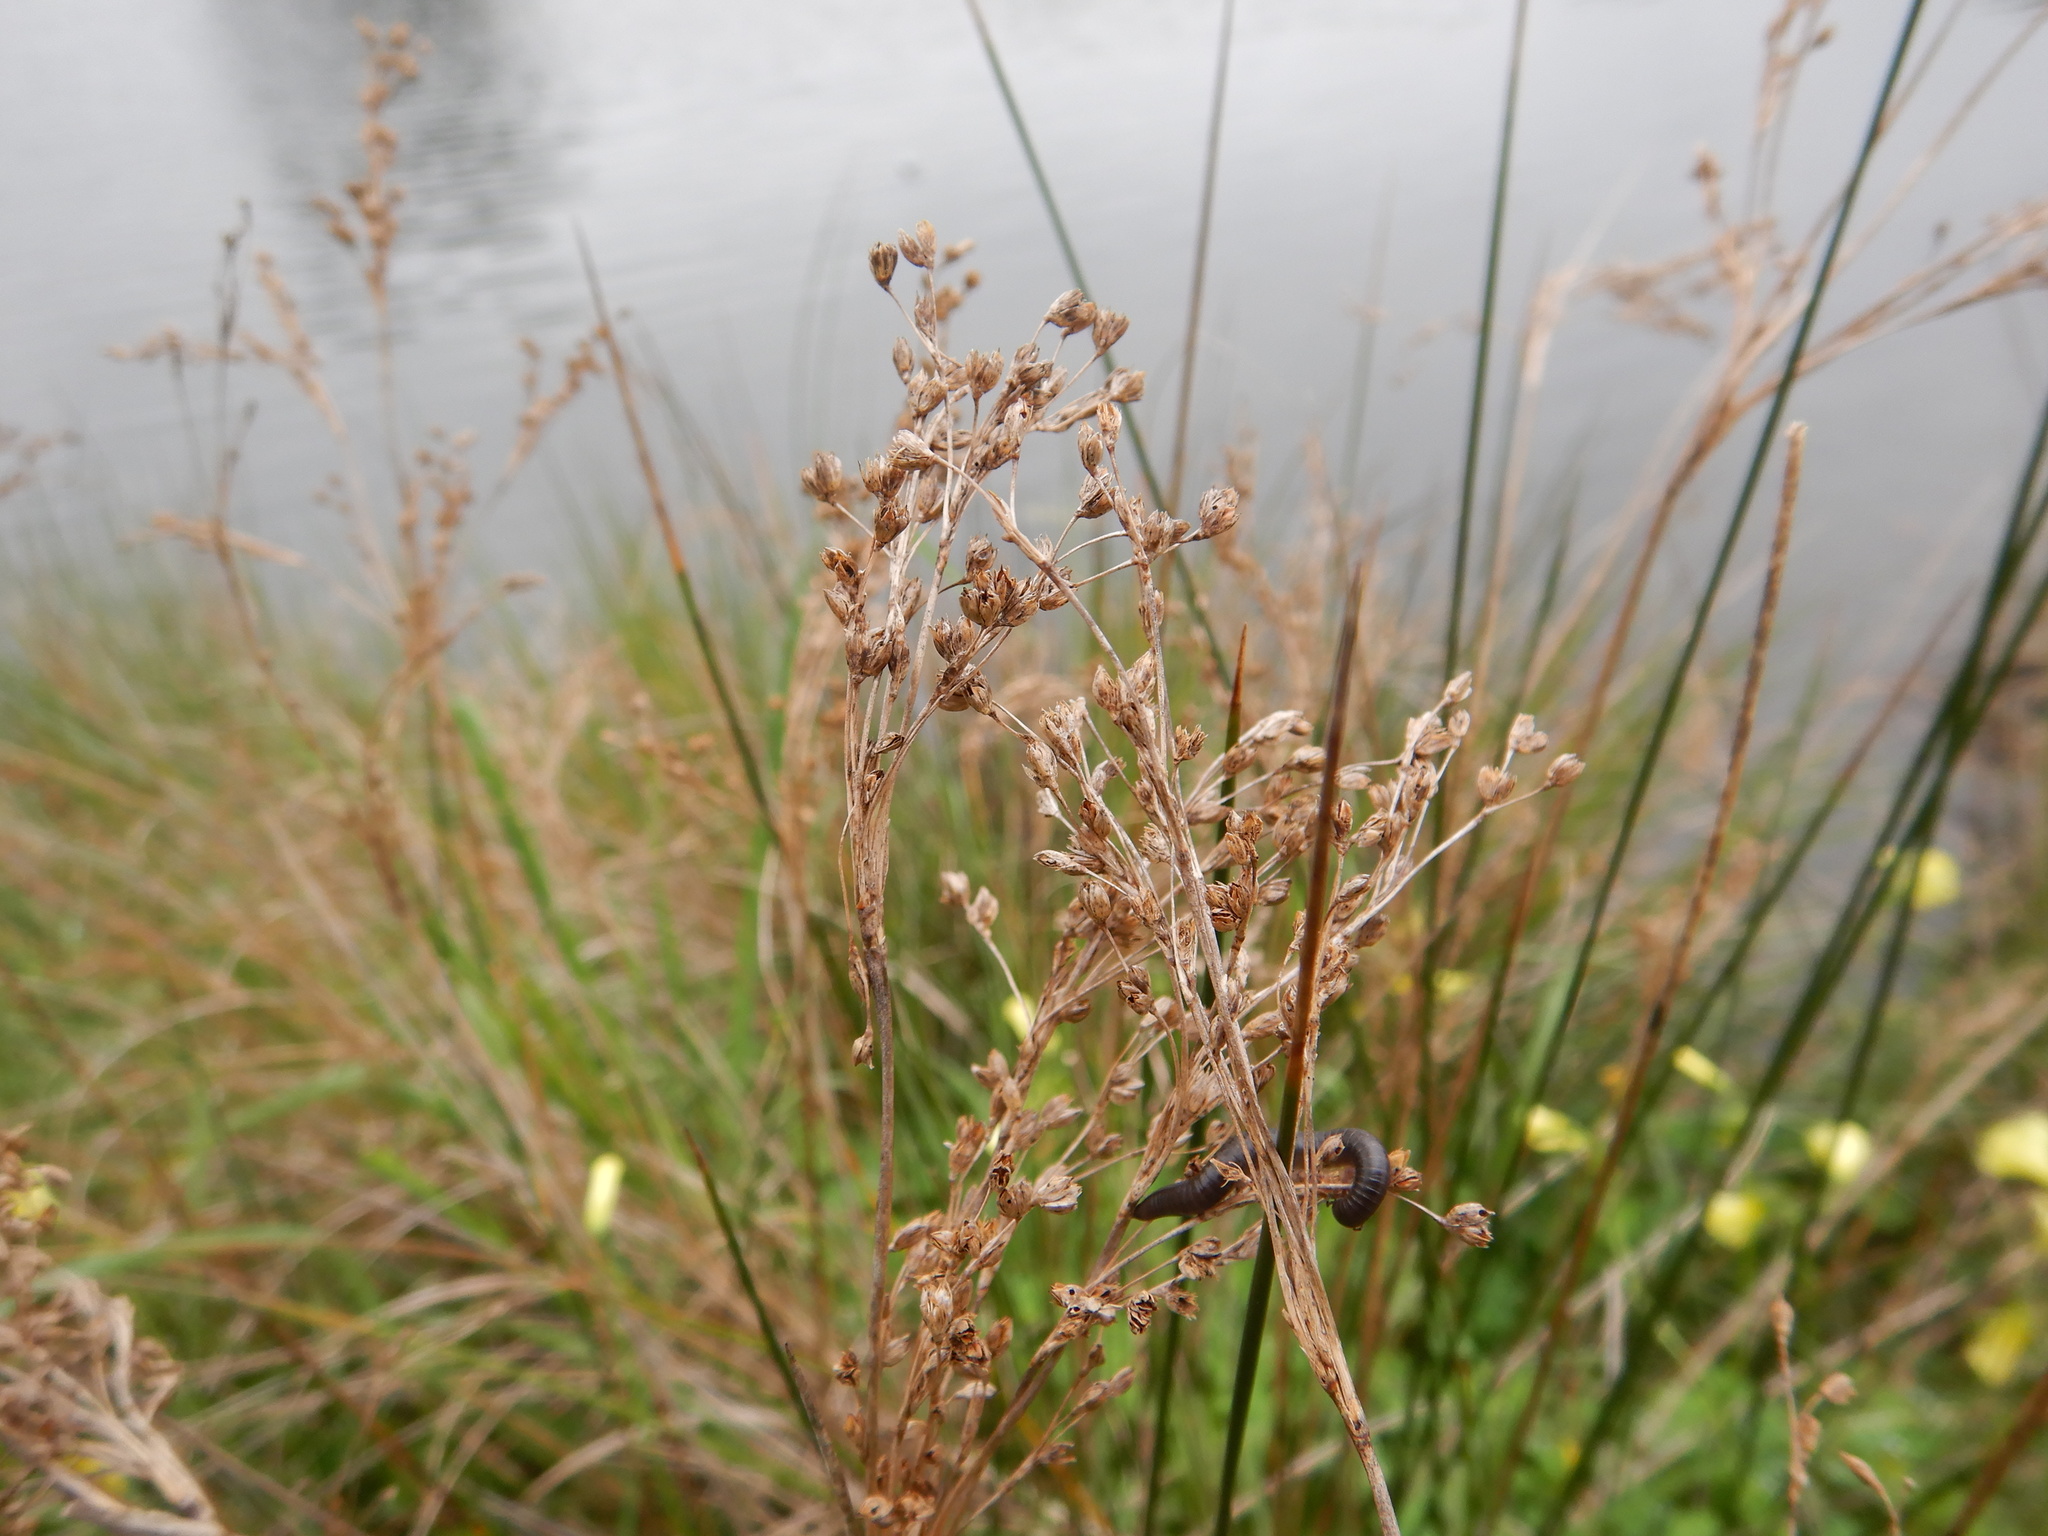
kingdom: Plantae
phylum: Tracheophyta
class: Liliopsida
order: Poales
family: Juncaceae
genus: Juncus
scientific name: Juncus maritimus
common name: Sea rush
